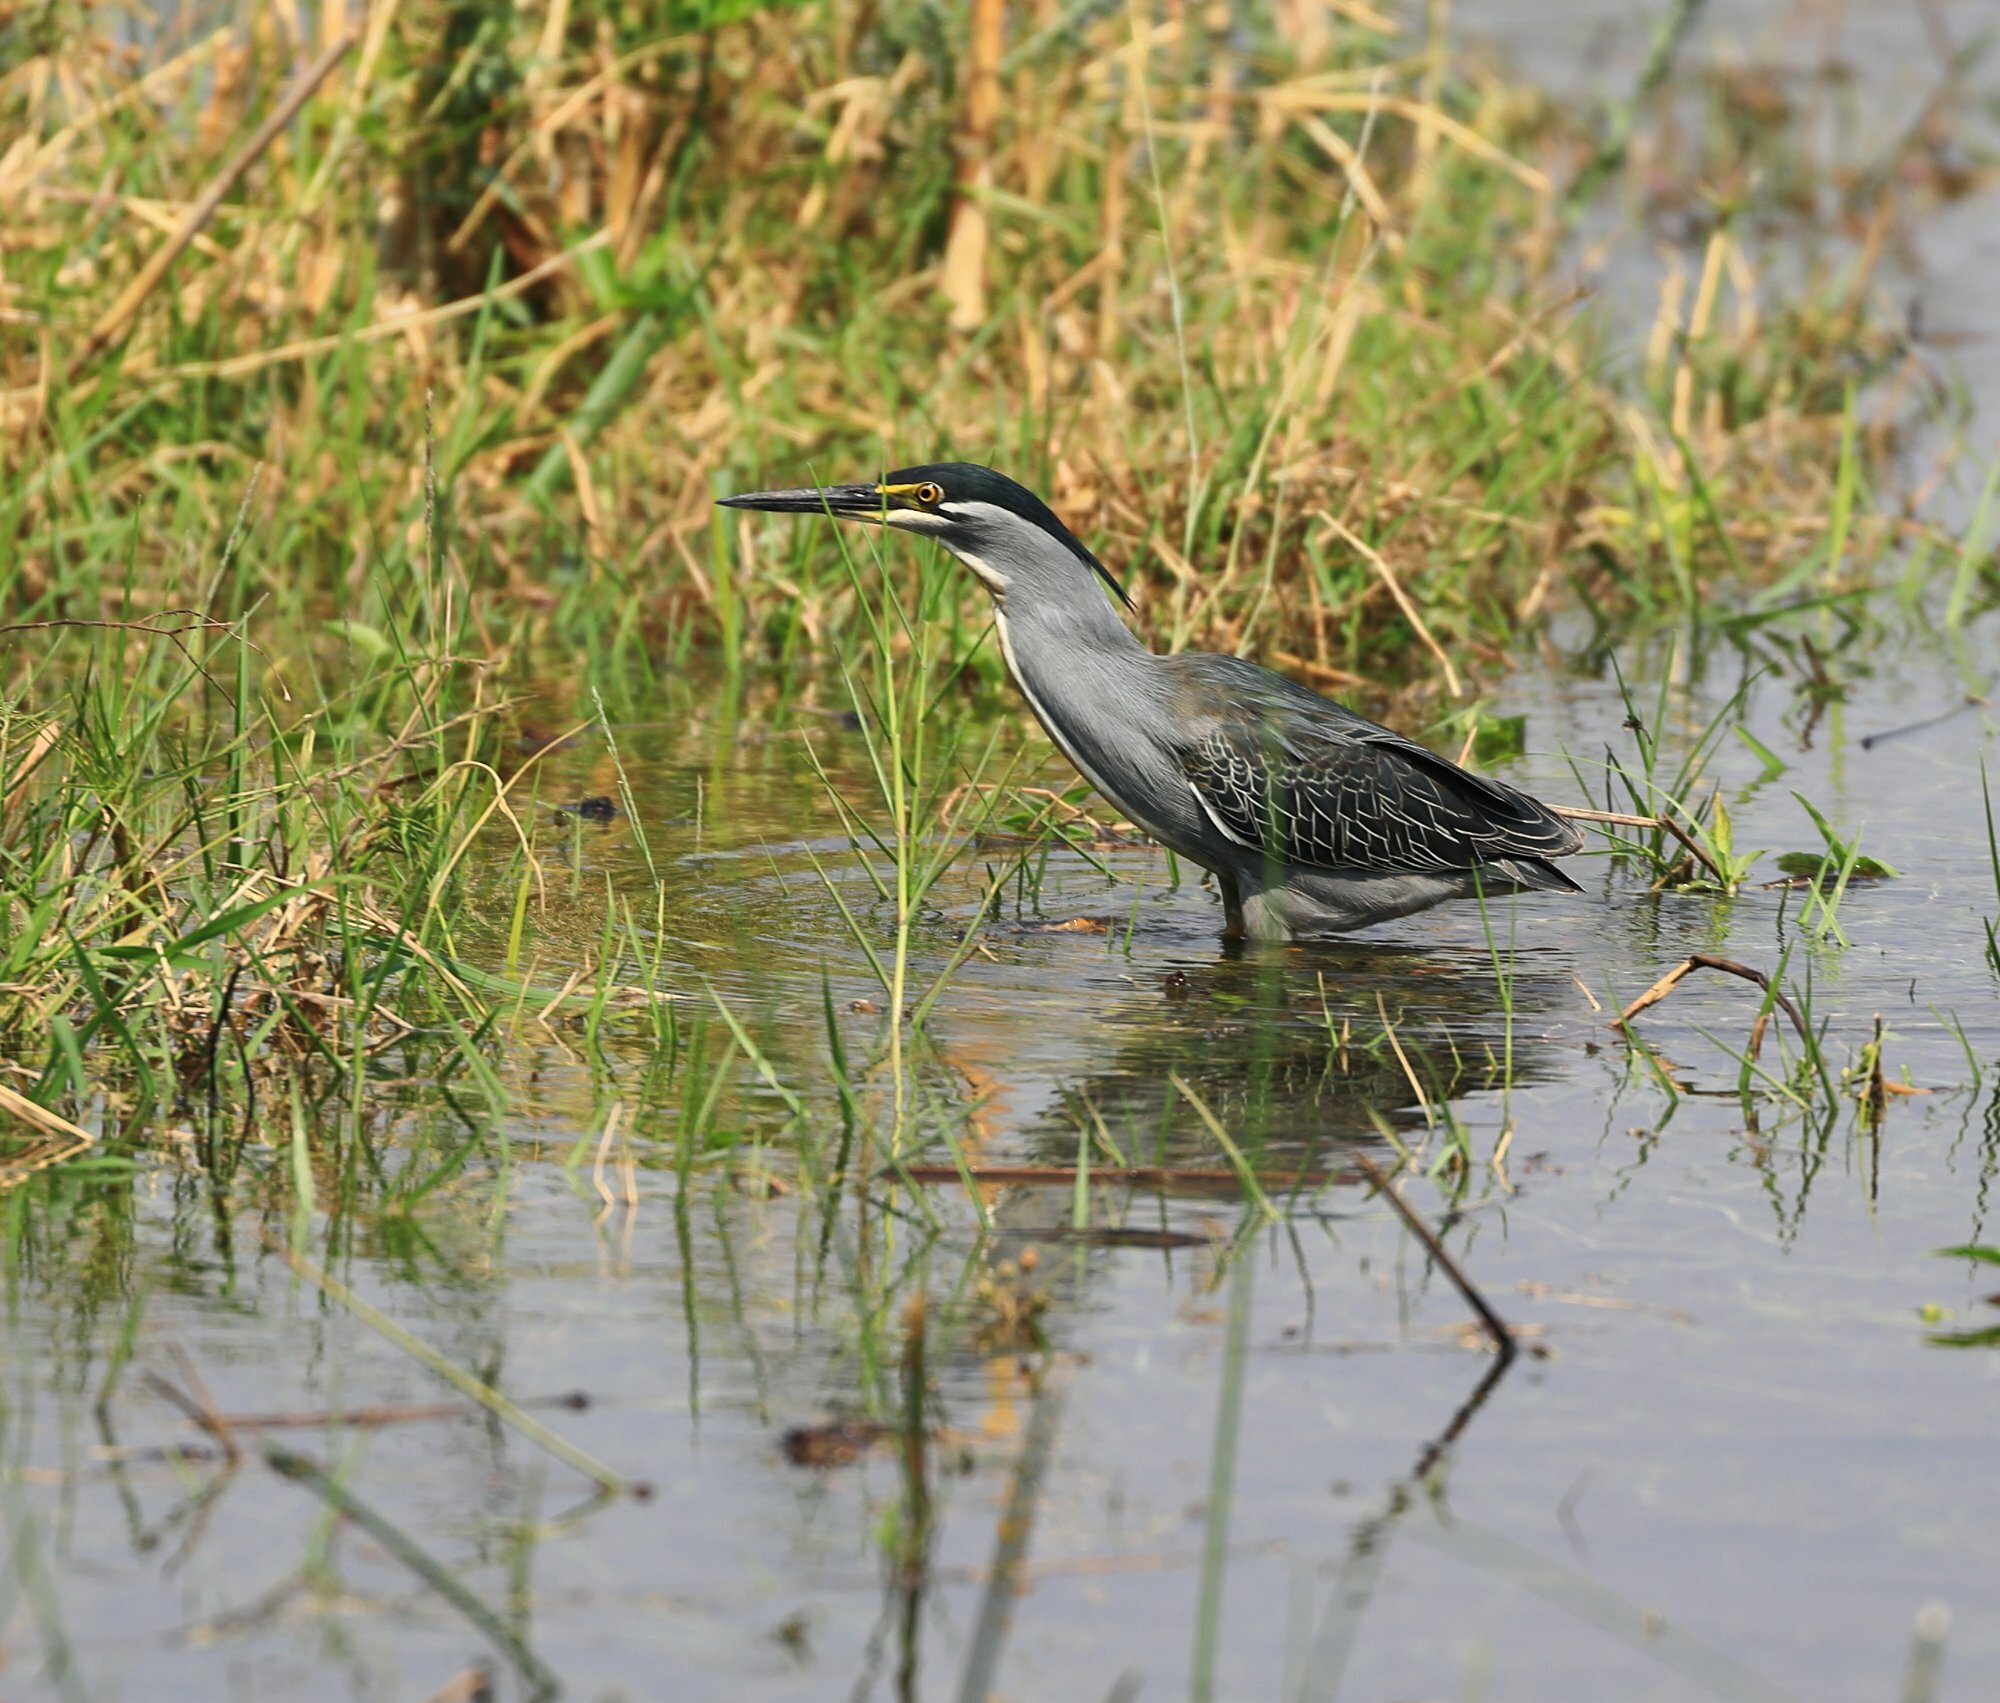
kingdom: Animalia
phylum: Chordata
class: Aves
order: Pelecaniformes
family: Ardeidae
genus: Butorides
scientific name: Butorides striata
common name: Striated heron
